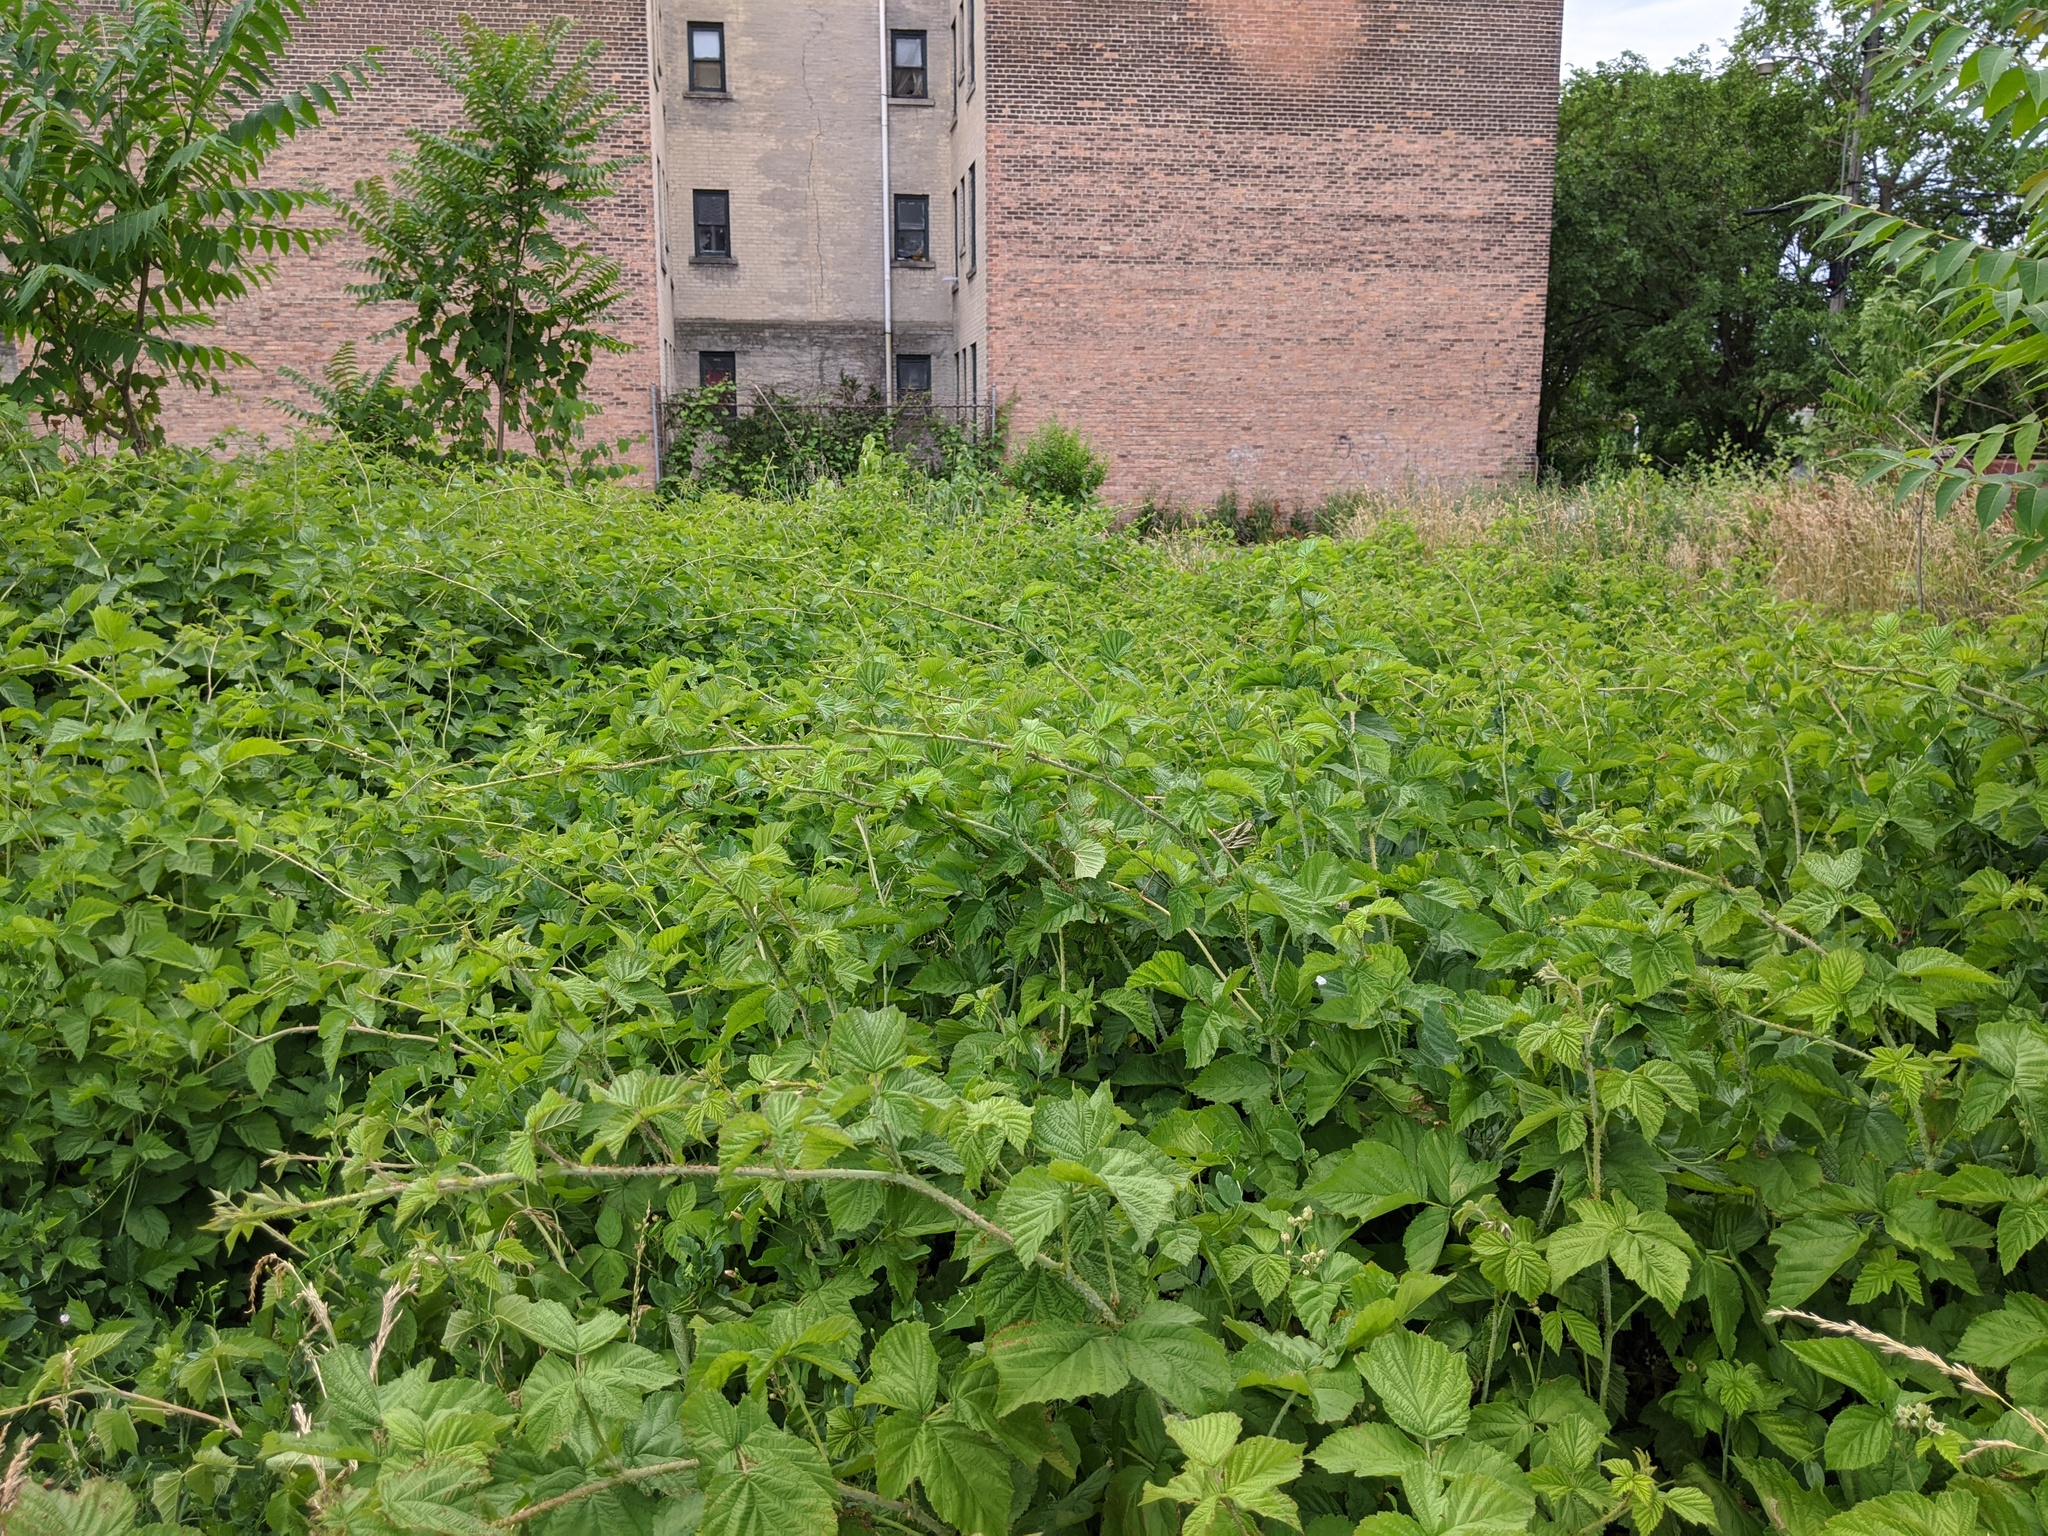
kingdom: Plantae
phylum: Tracheophyta
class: Magnoliopsida
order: Rosales
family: Rosaceae
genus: Rubus
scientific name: Rubus caesius
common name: Dewberry
